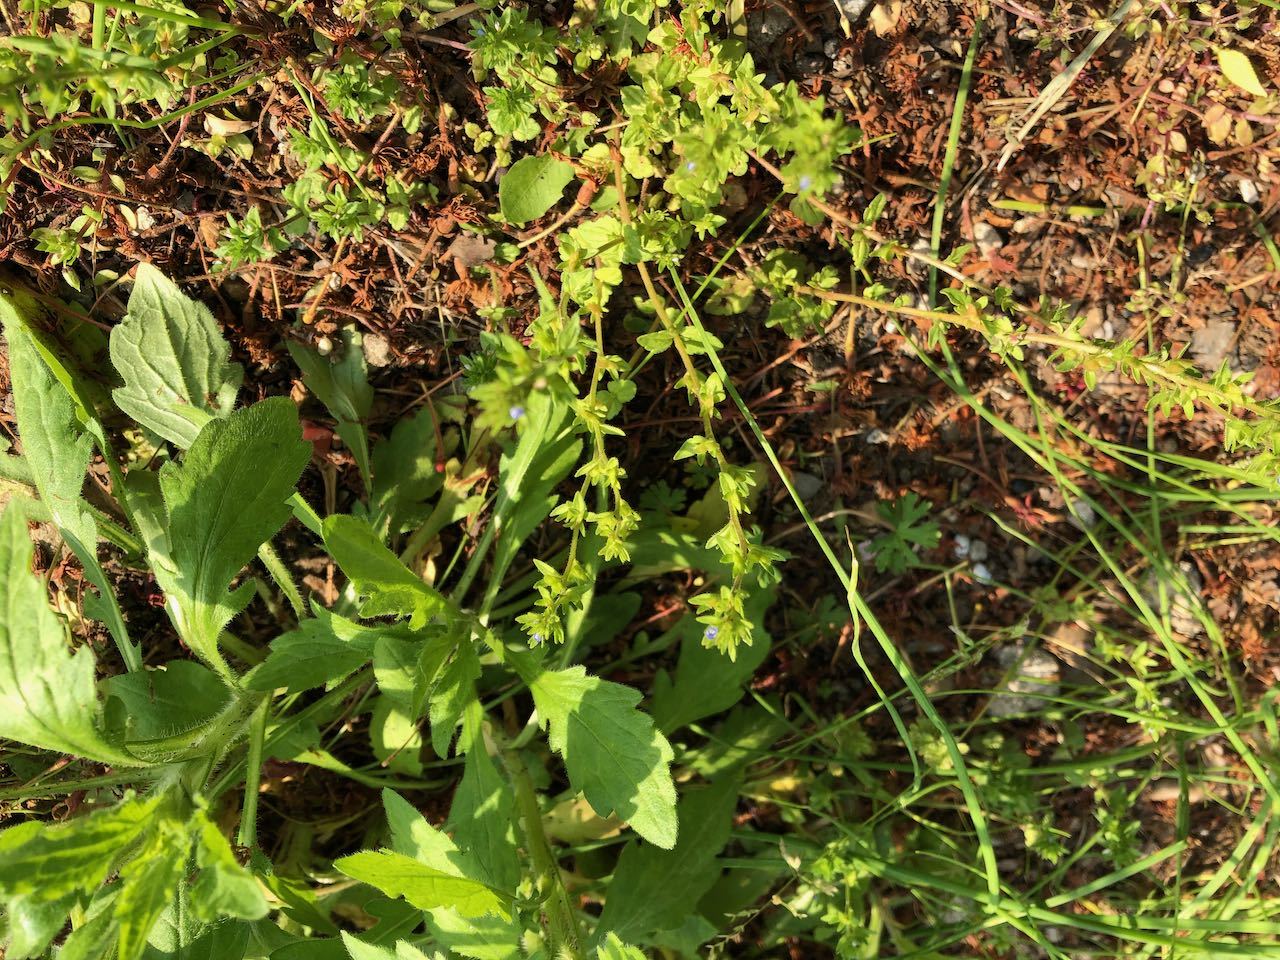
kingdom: Plantae
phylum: Tracheophyta
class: Magnoliopsida
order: Lamiales
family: Plantaginaceae
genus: Veronica
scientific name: Veronica arvensis
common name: Corn speedwell
